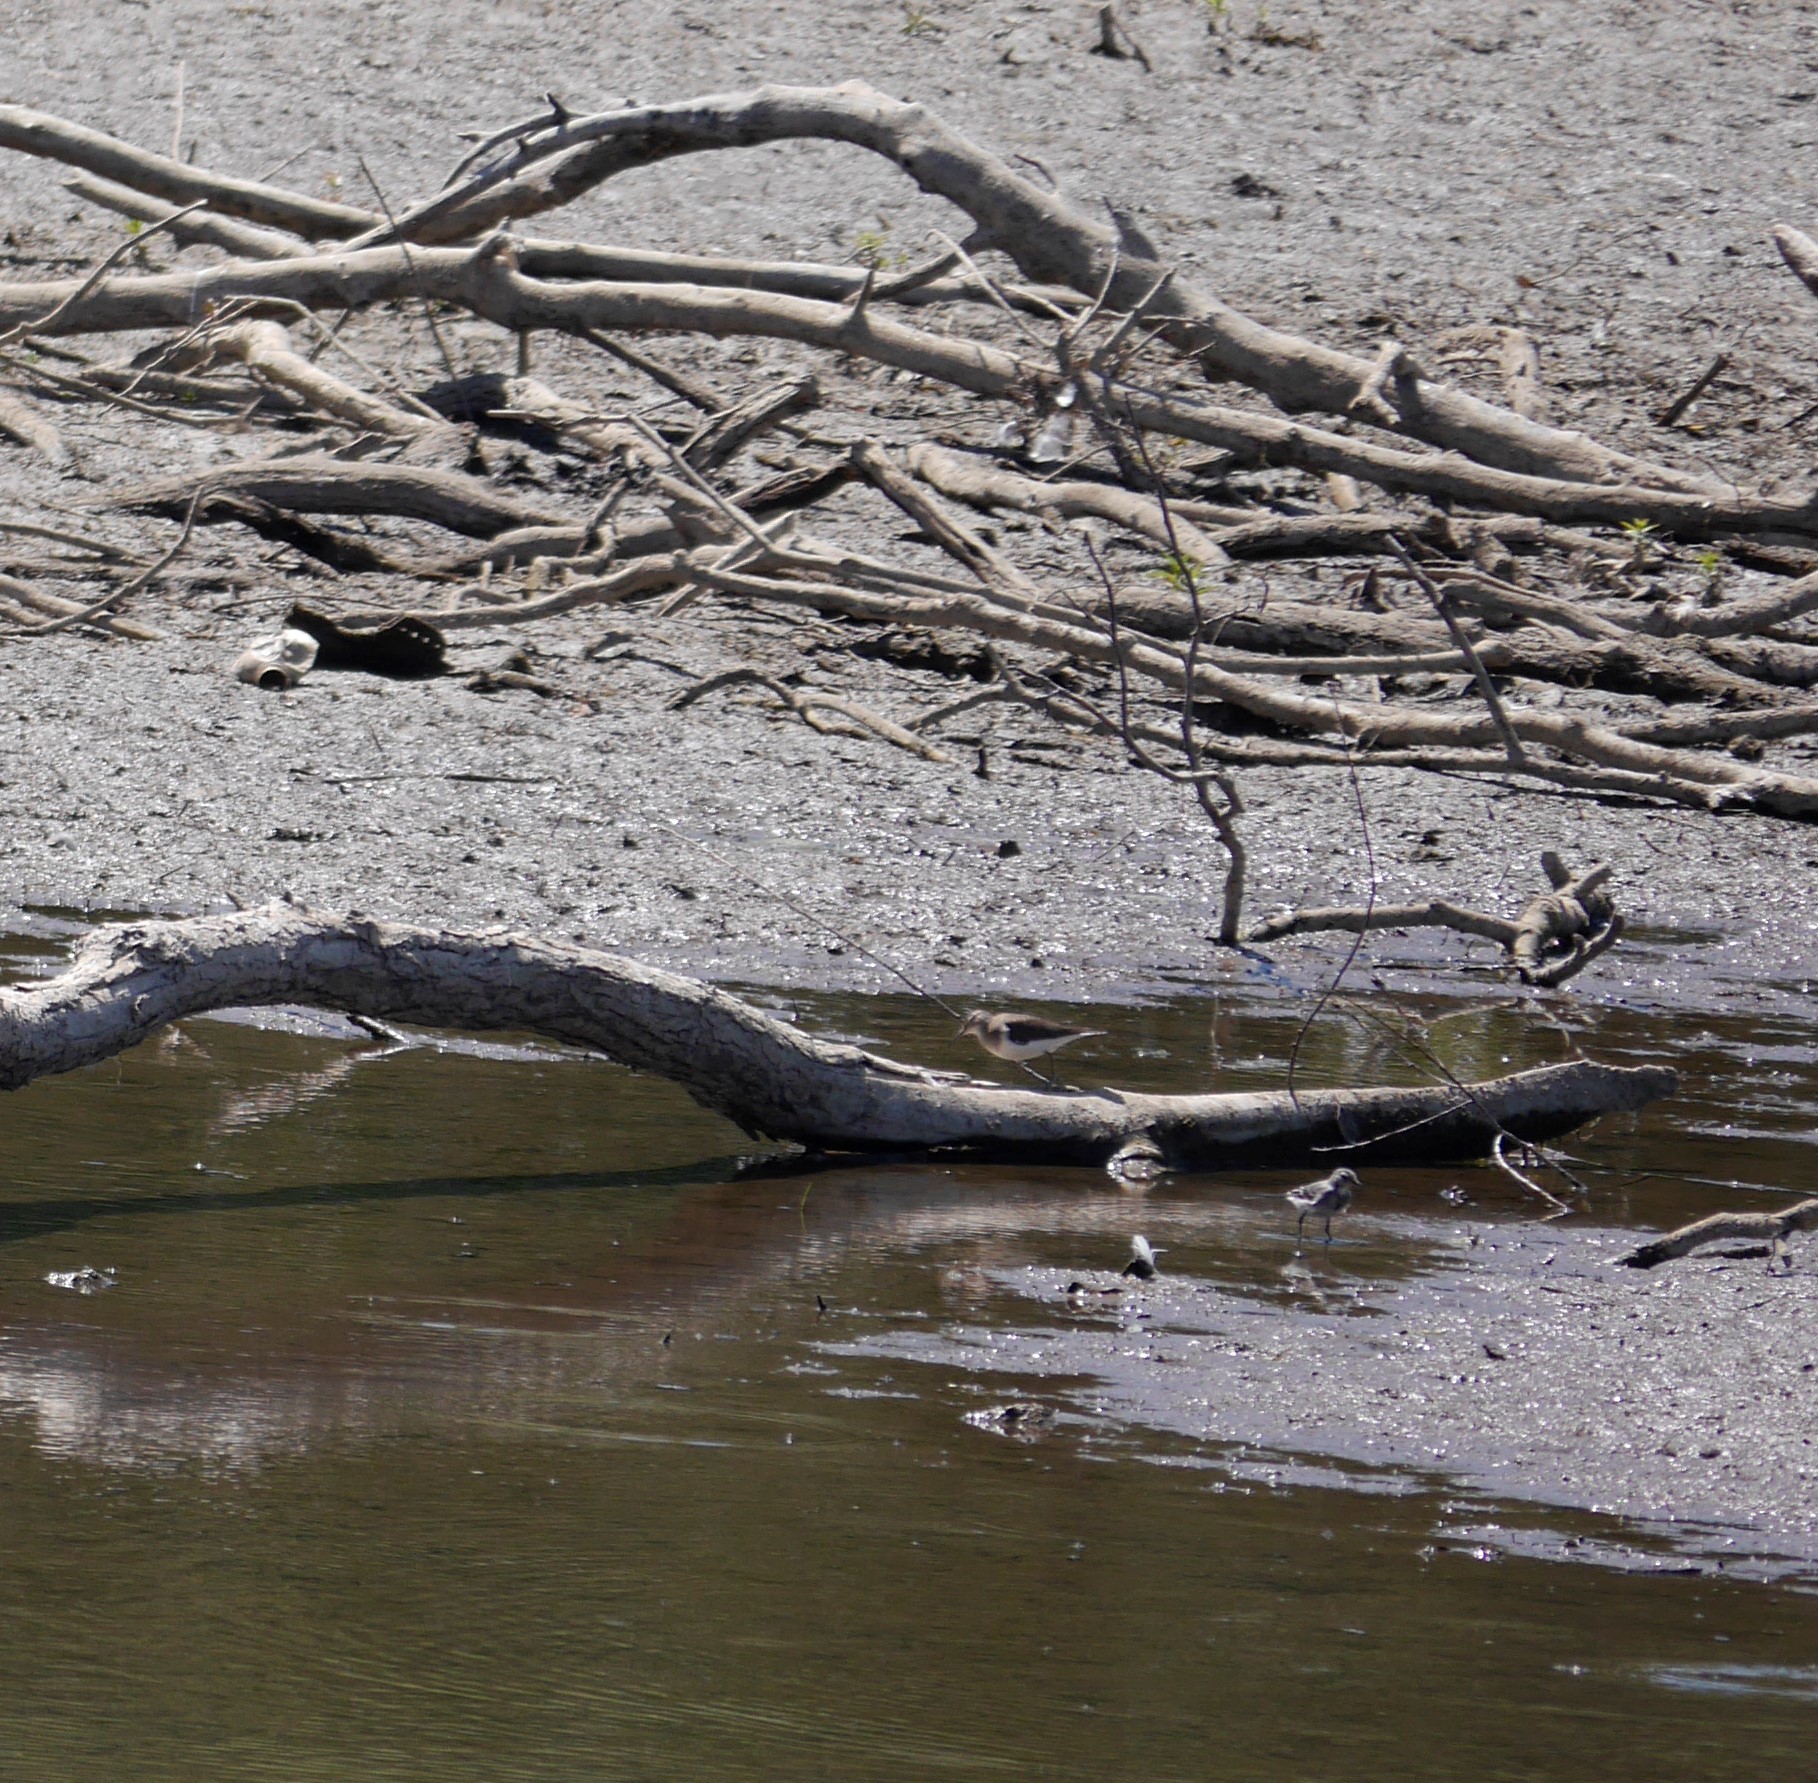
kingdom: Animalia
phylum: Chordata
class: Aves
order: Charadriiformes
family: Scolopacidae
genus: Actitis
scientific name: Actitis hypoleucos
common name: Common sandpiper
